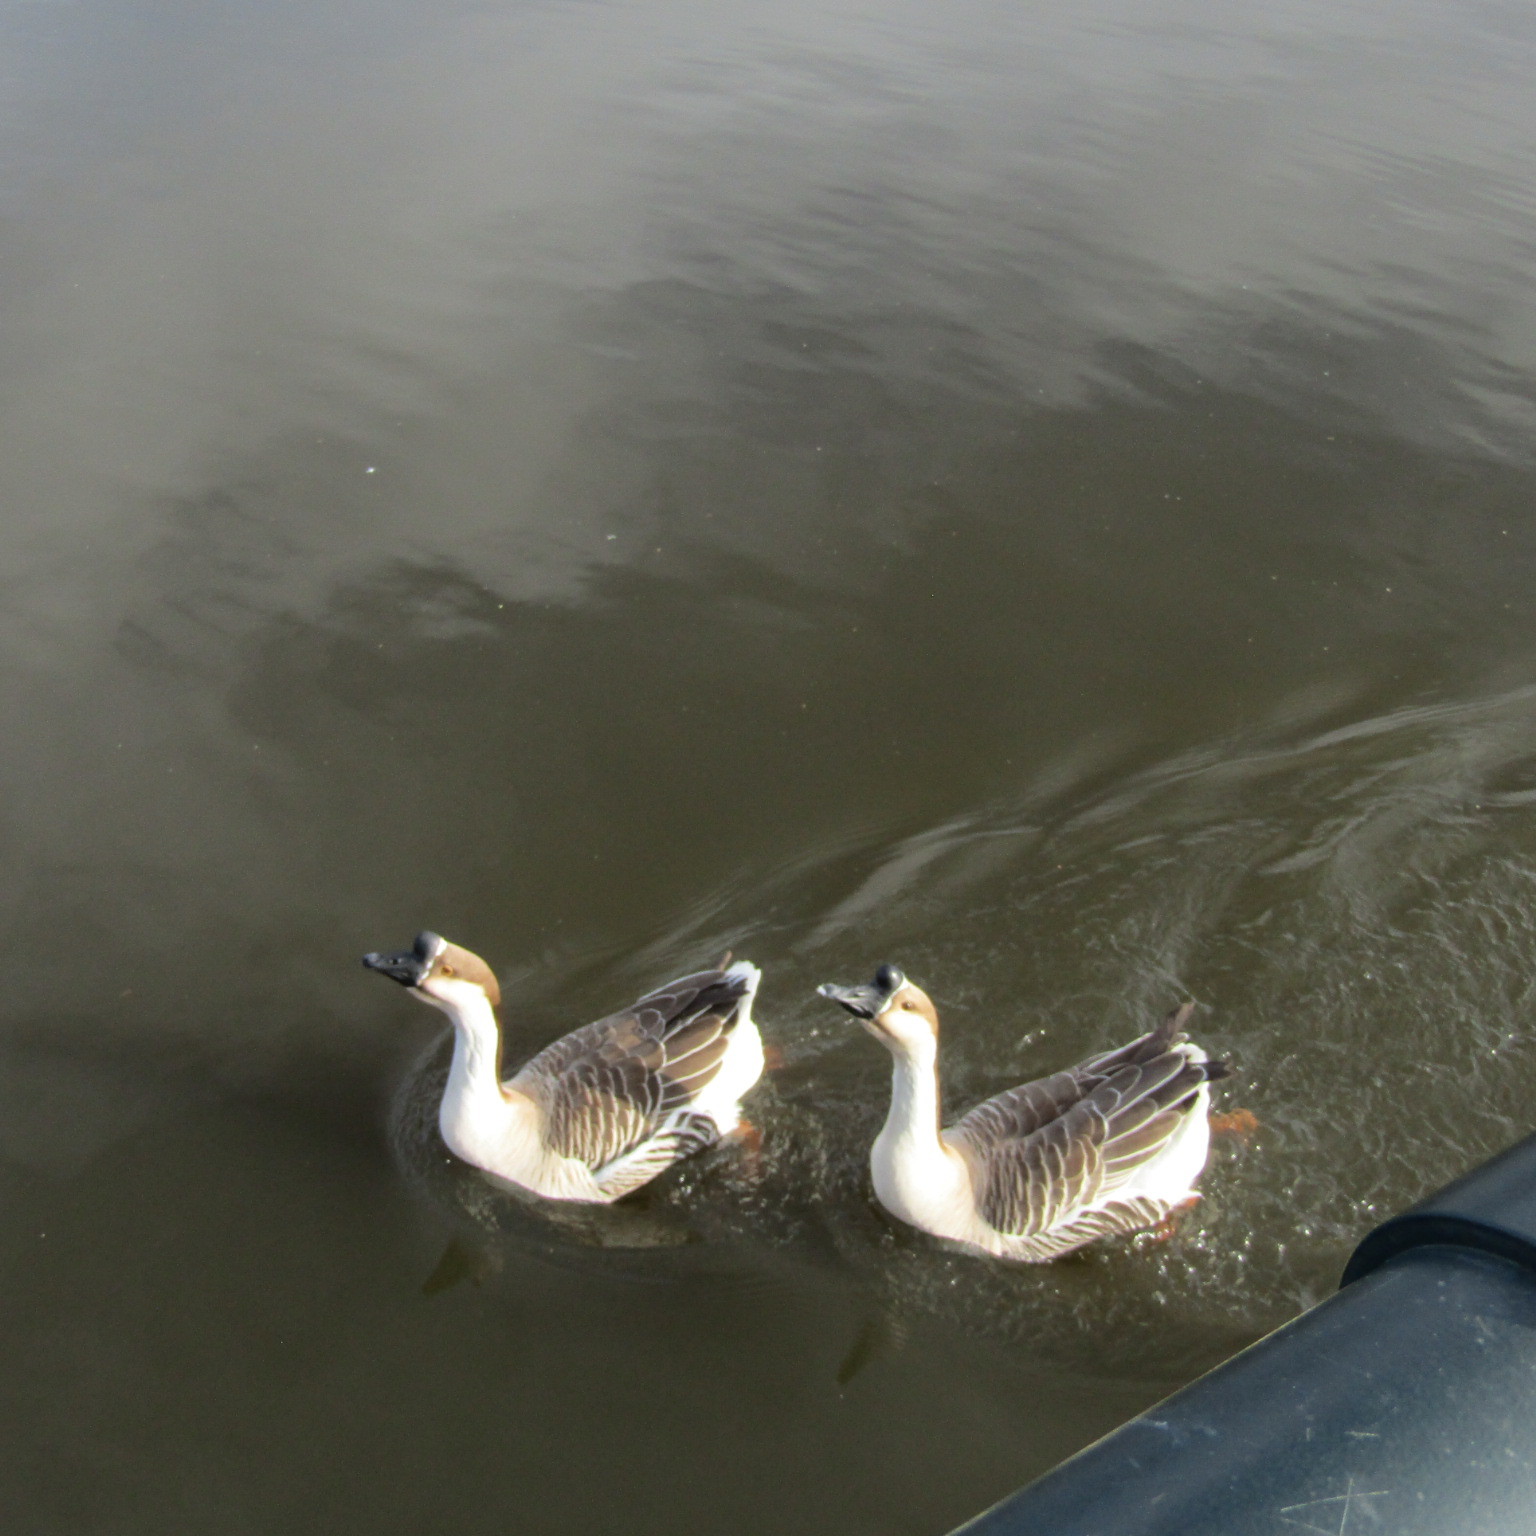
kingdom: Animalia
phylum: Chordata
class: Aves
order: Anseriformes
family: Anatidae
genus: Anser
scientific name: Anser cygnoides
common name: Swan goose
